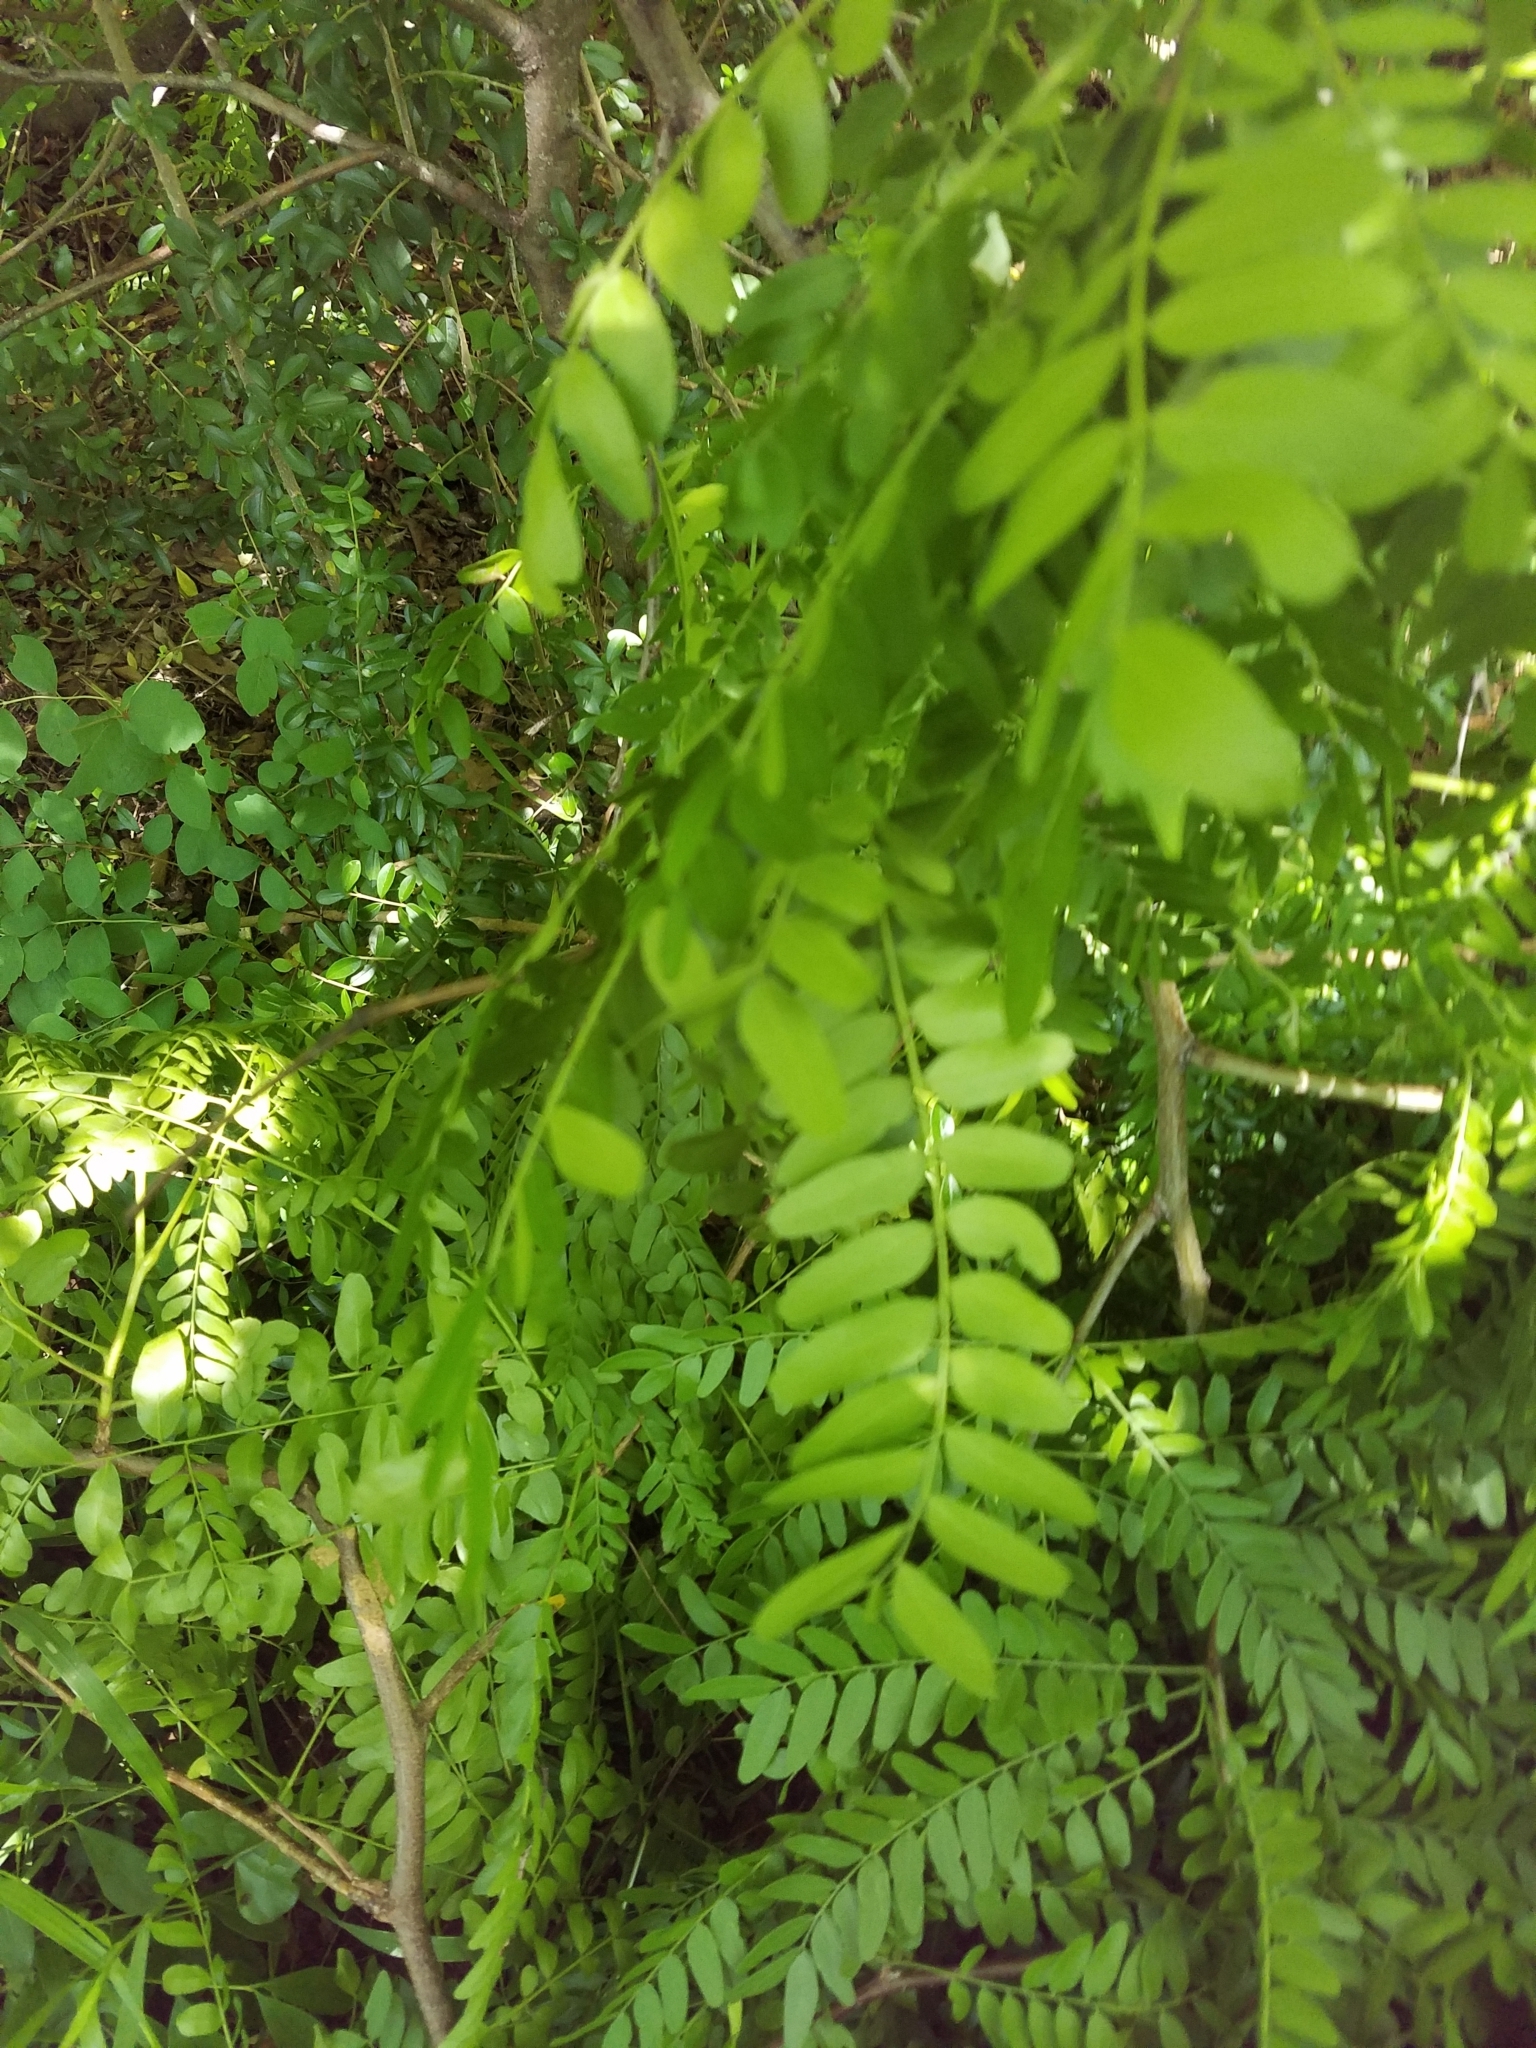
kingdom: Plantae
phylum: Tracheophyta
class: Magnoliopsida
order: Fabales
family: Fabaceae
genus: Gleditsia
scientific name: Gleditsia triacanthos
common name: Common honeylocust
